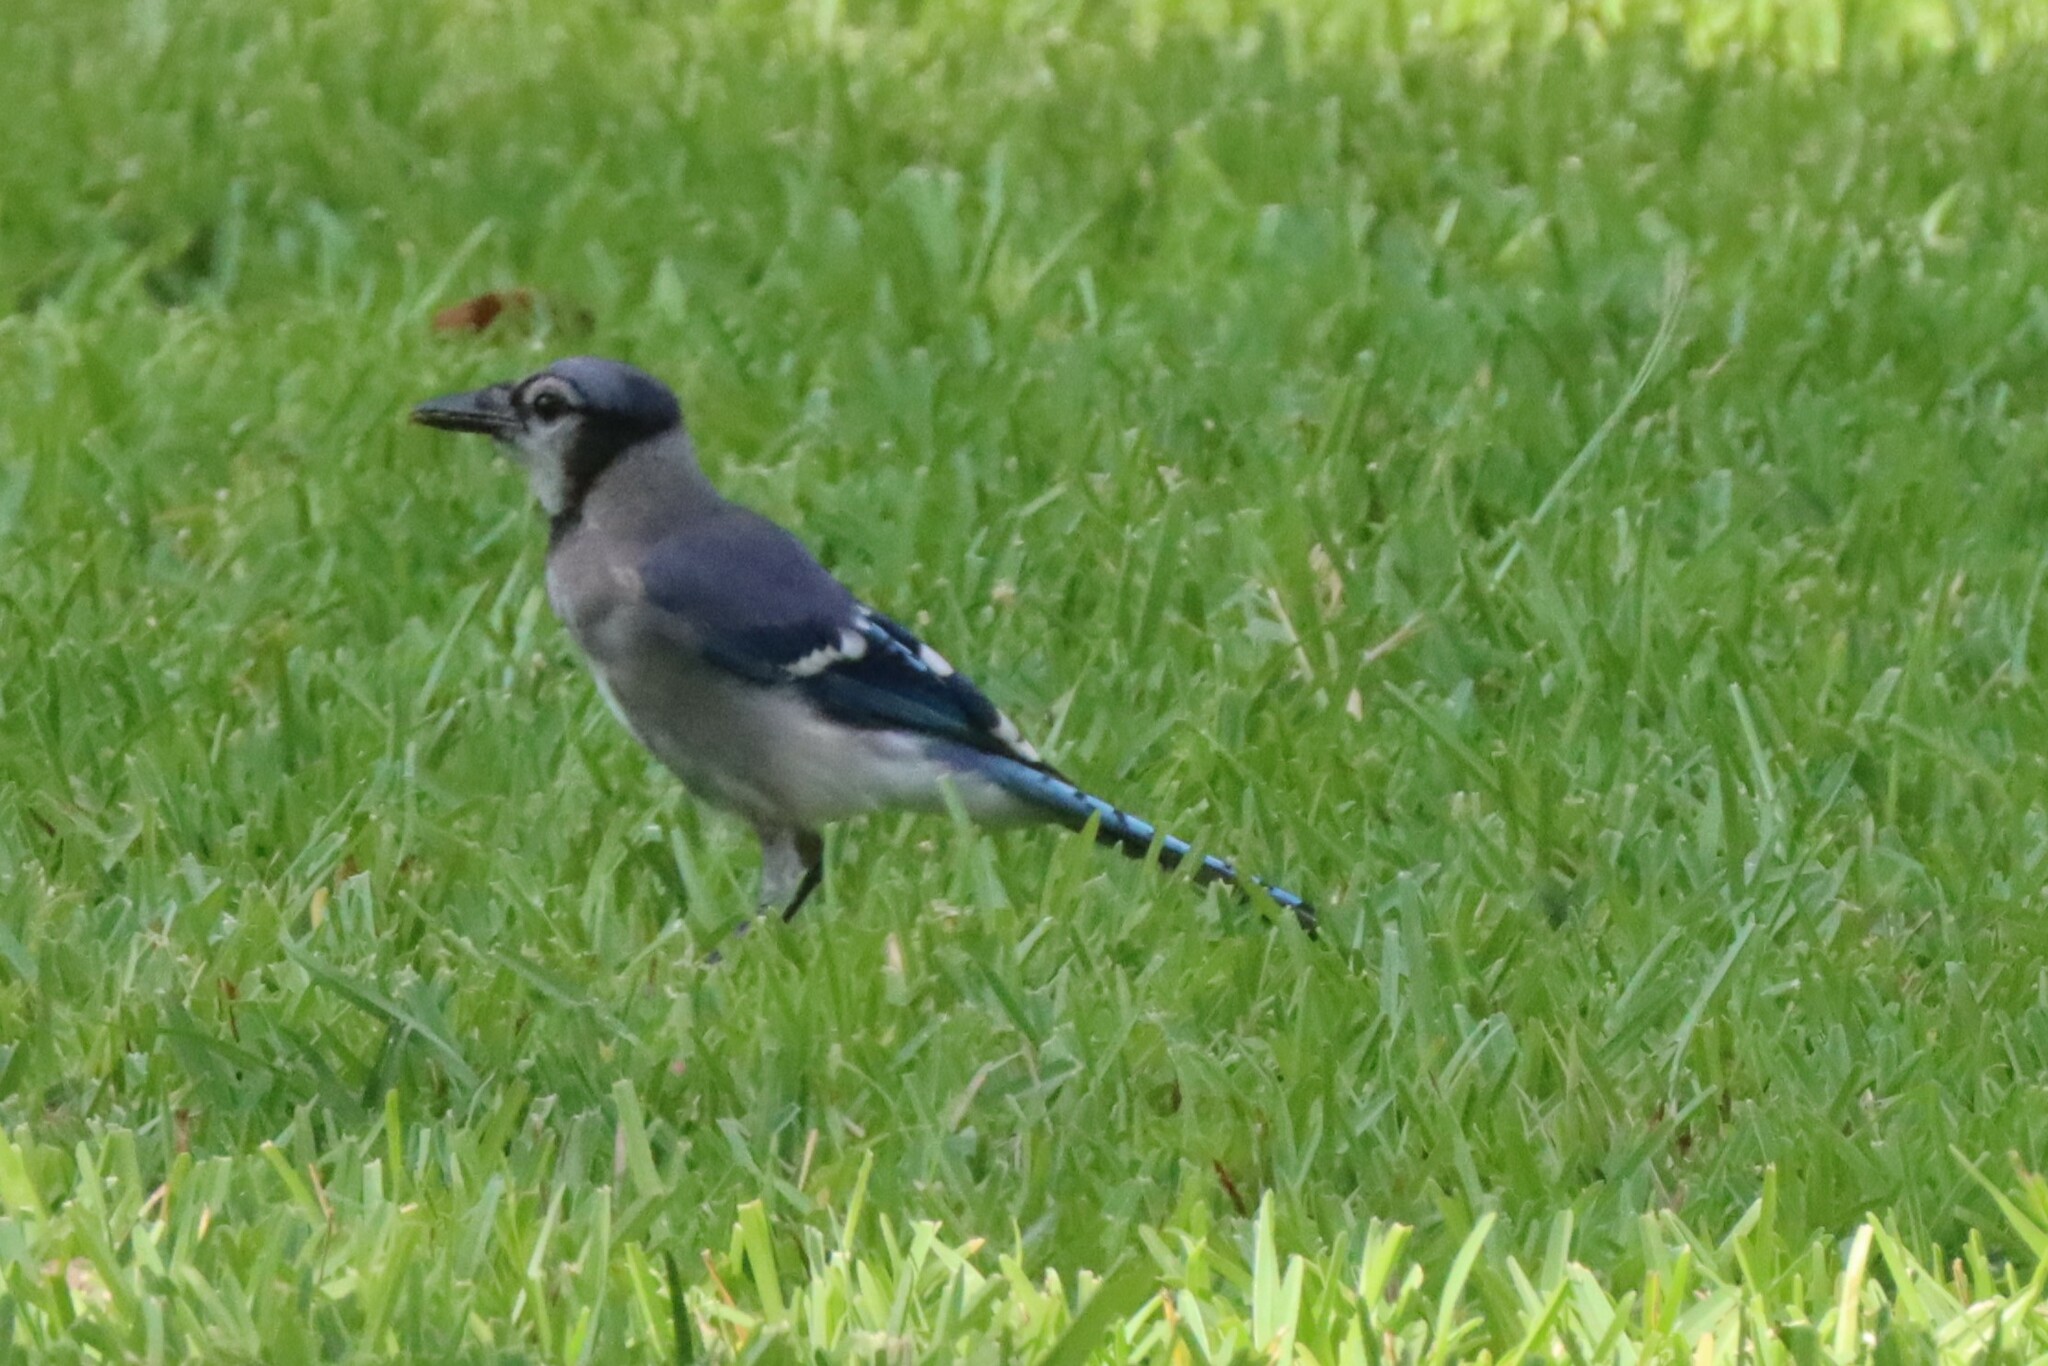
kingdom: Animalia
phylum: Chordata
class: Aves
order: Passeriformes
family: Corvidae
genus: Cyanocitta
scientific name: Cyanocitta cristata
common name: Blue jay
